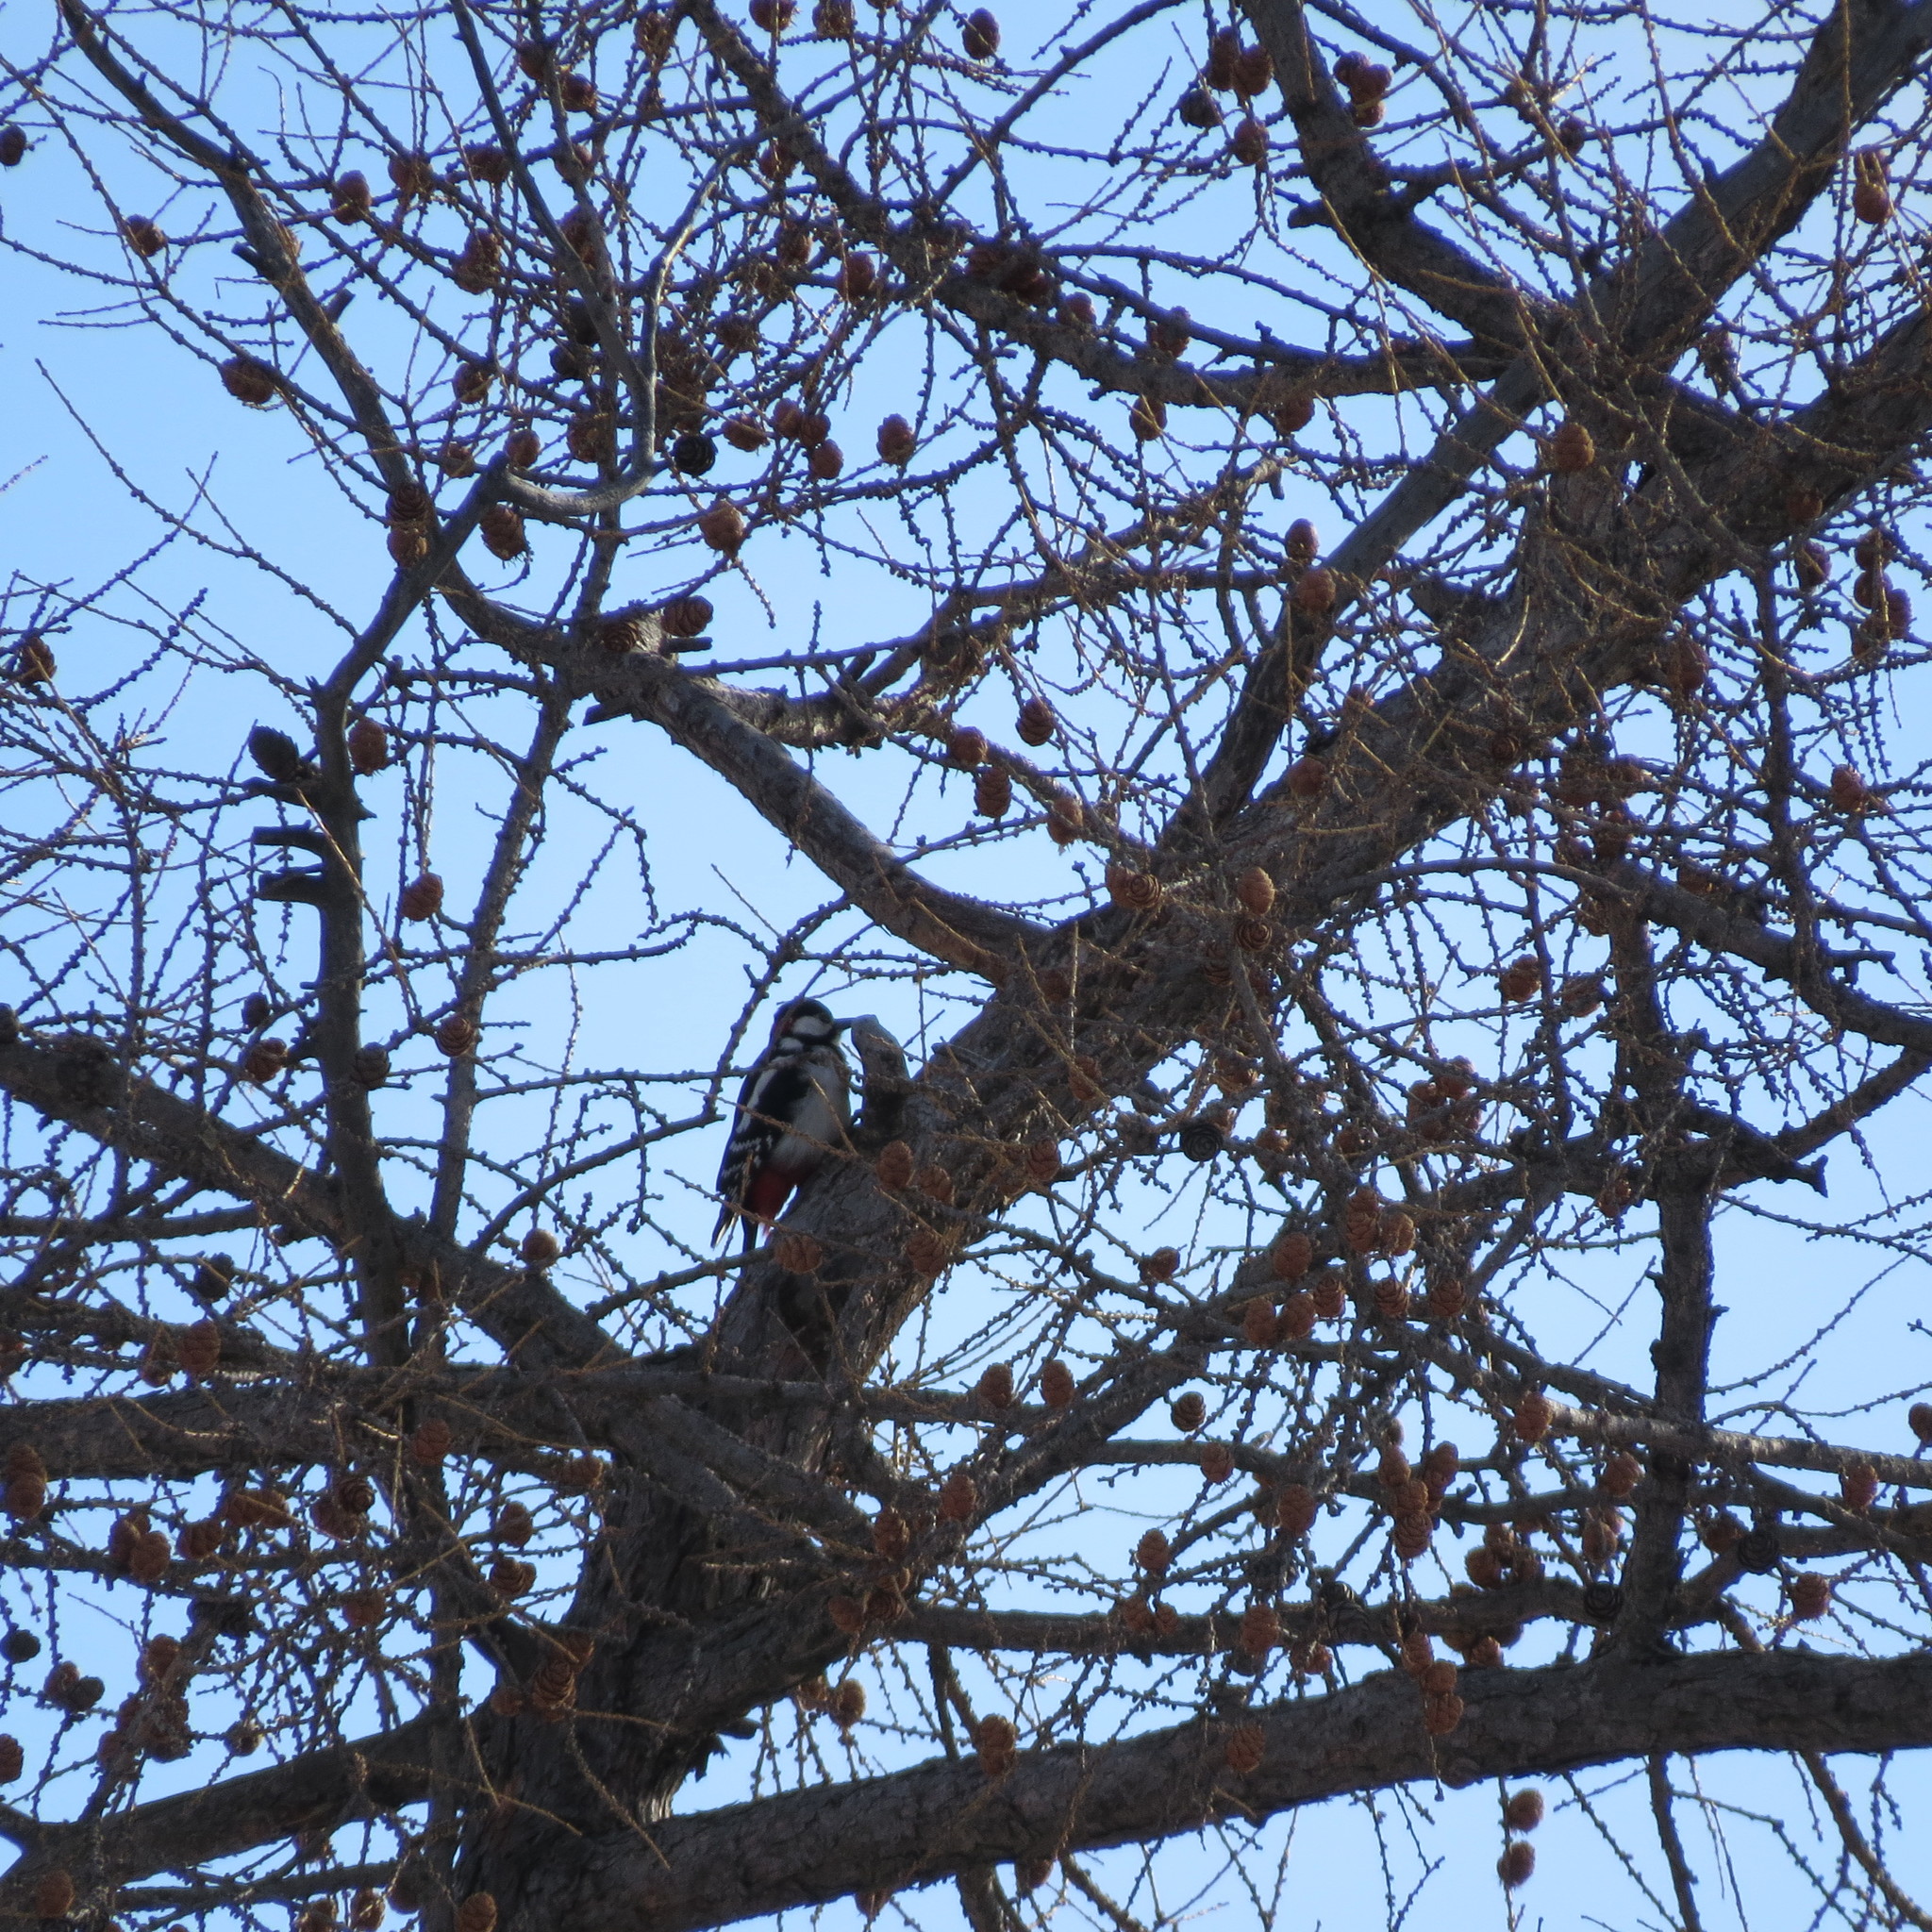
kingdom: Animalia
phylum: Chordata
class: Aves
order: Piciformes
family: Picidae
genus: Dendrocopos
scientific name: Dendrocopos major
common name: Great spotted woodpecker
